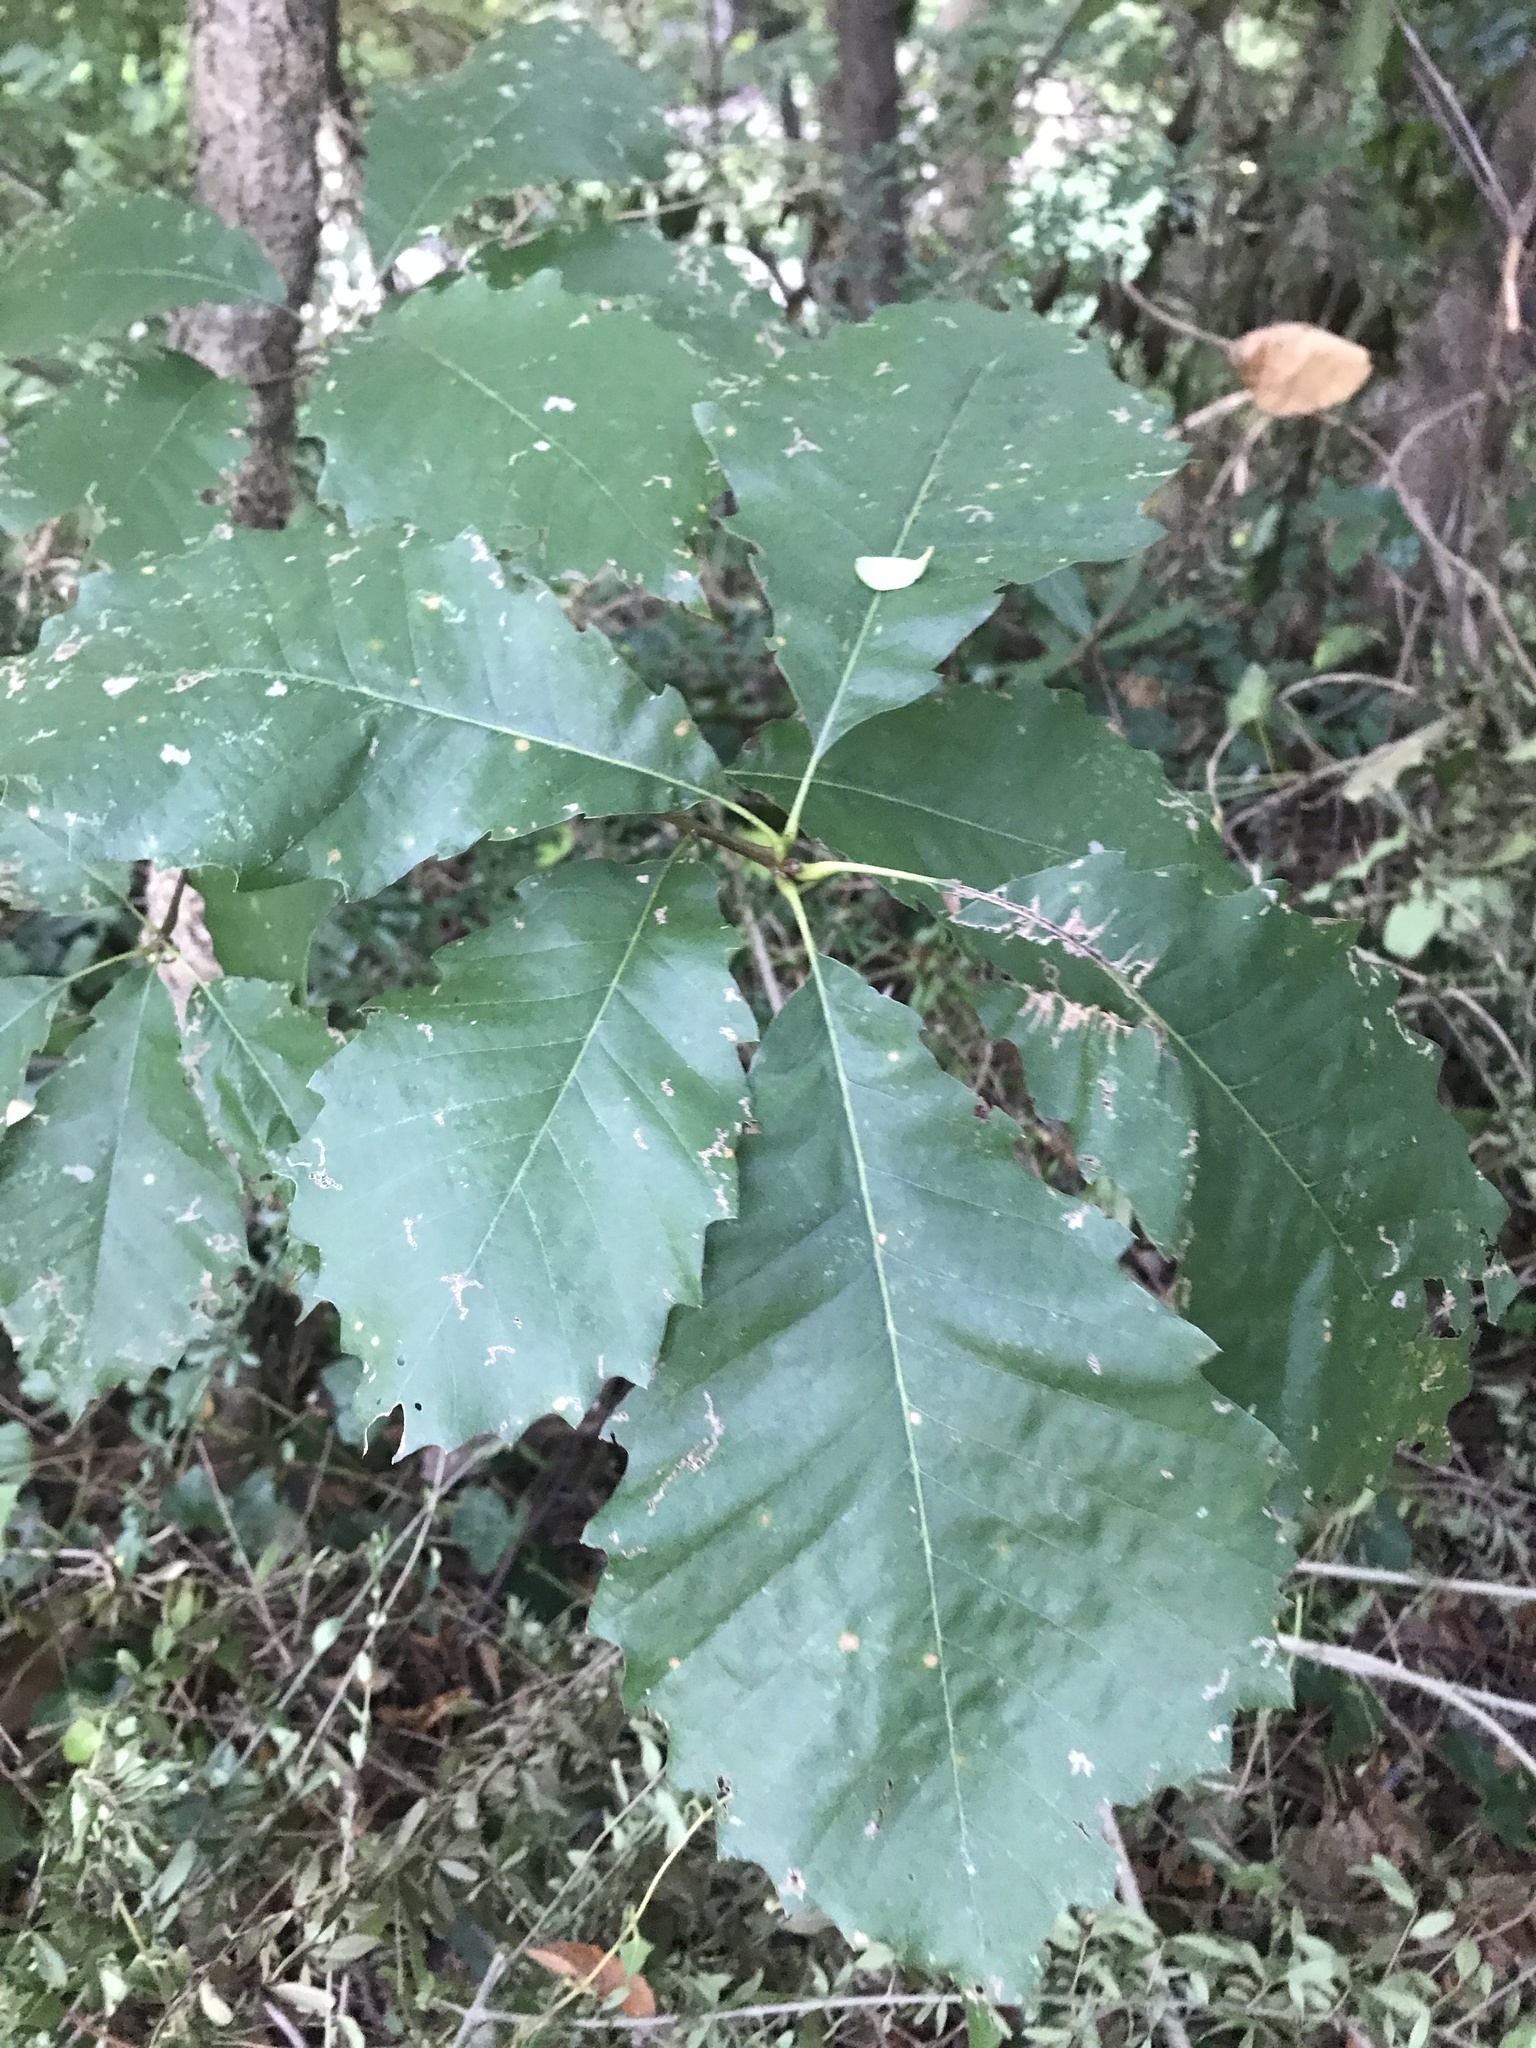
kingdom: Plantae
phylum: Tracheophyta
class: Magnoliopsida
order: Fagales
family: Fagaceae
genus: Quercus
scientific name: Quercus muehlenbergii
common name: Chinkapin oak
